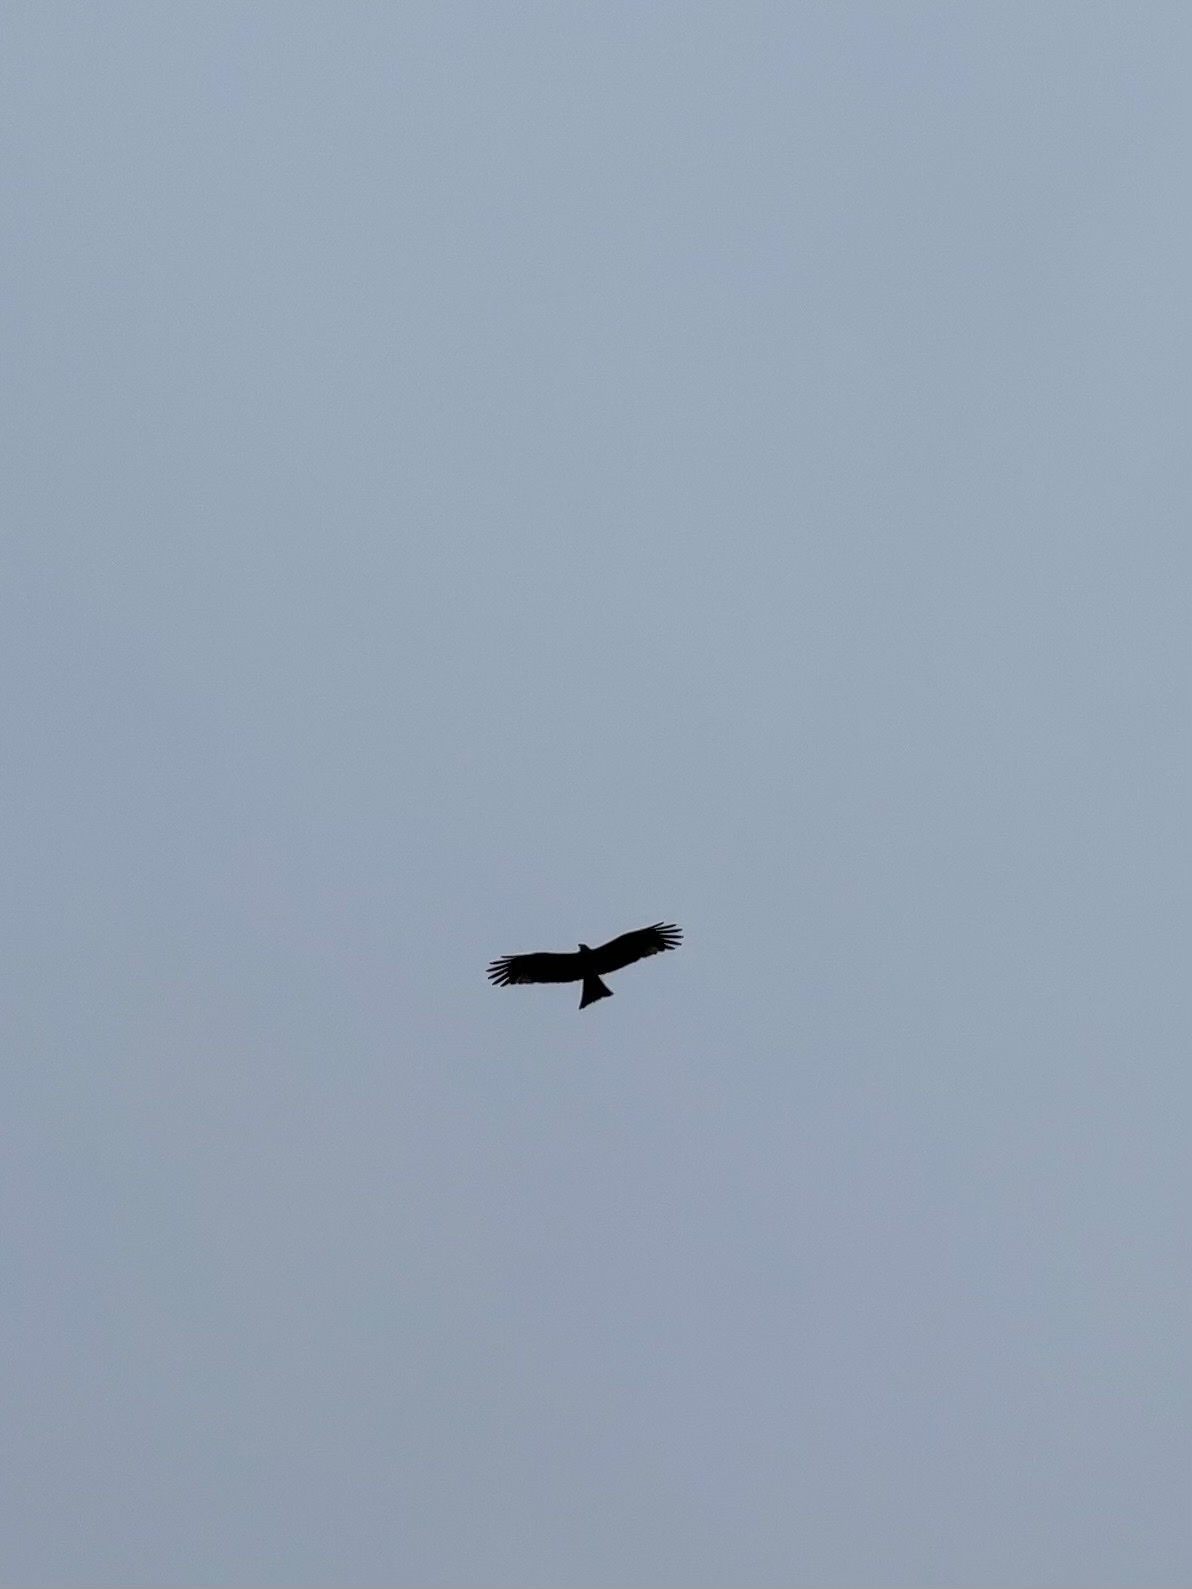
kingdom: Animalia
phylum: Chordata
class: Aves
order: Accipitriformes
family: Accipitridae
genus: Milvus
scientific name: Milvus migrans
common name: Black kite
